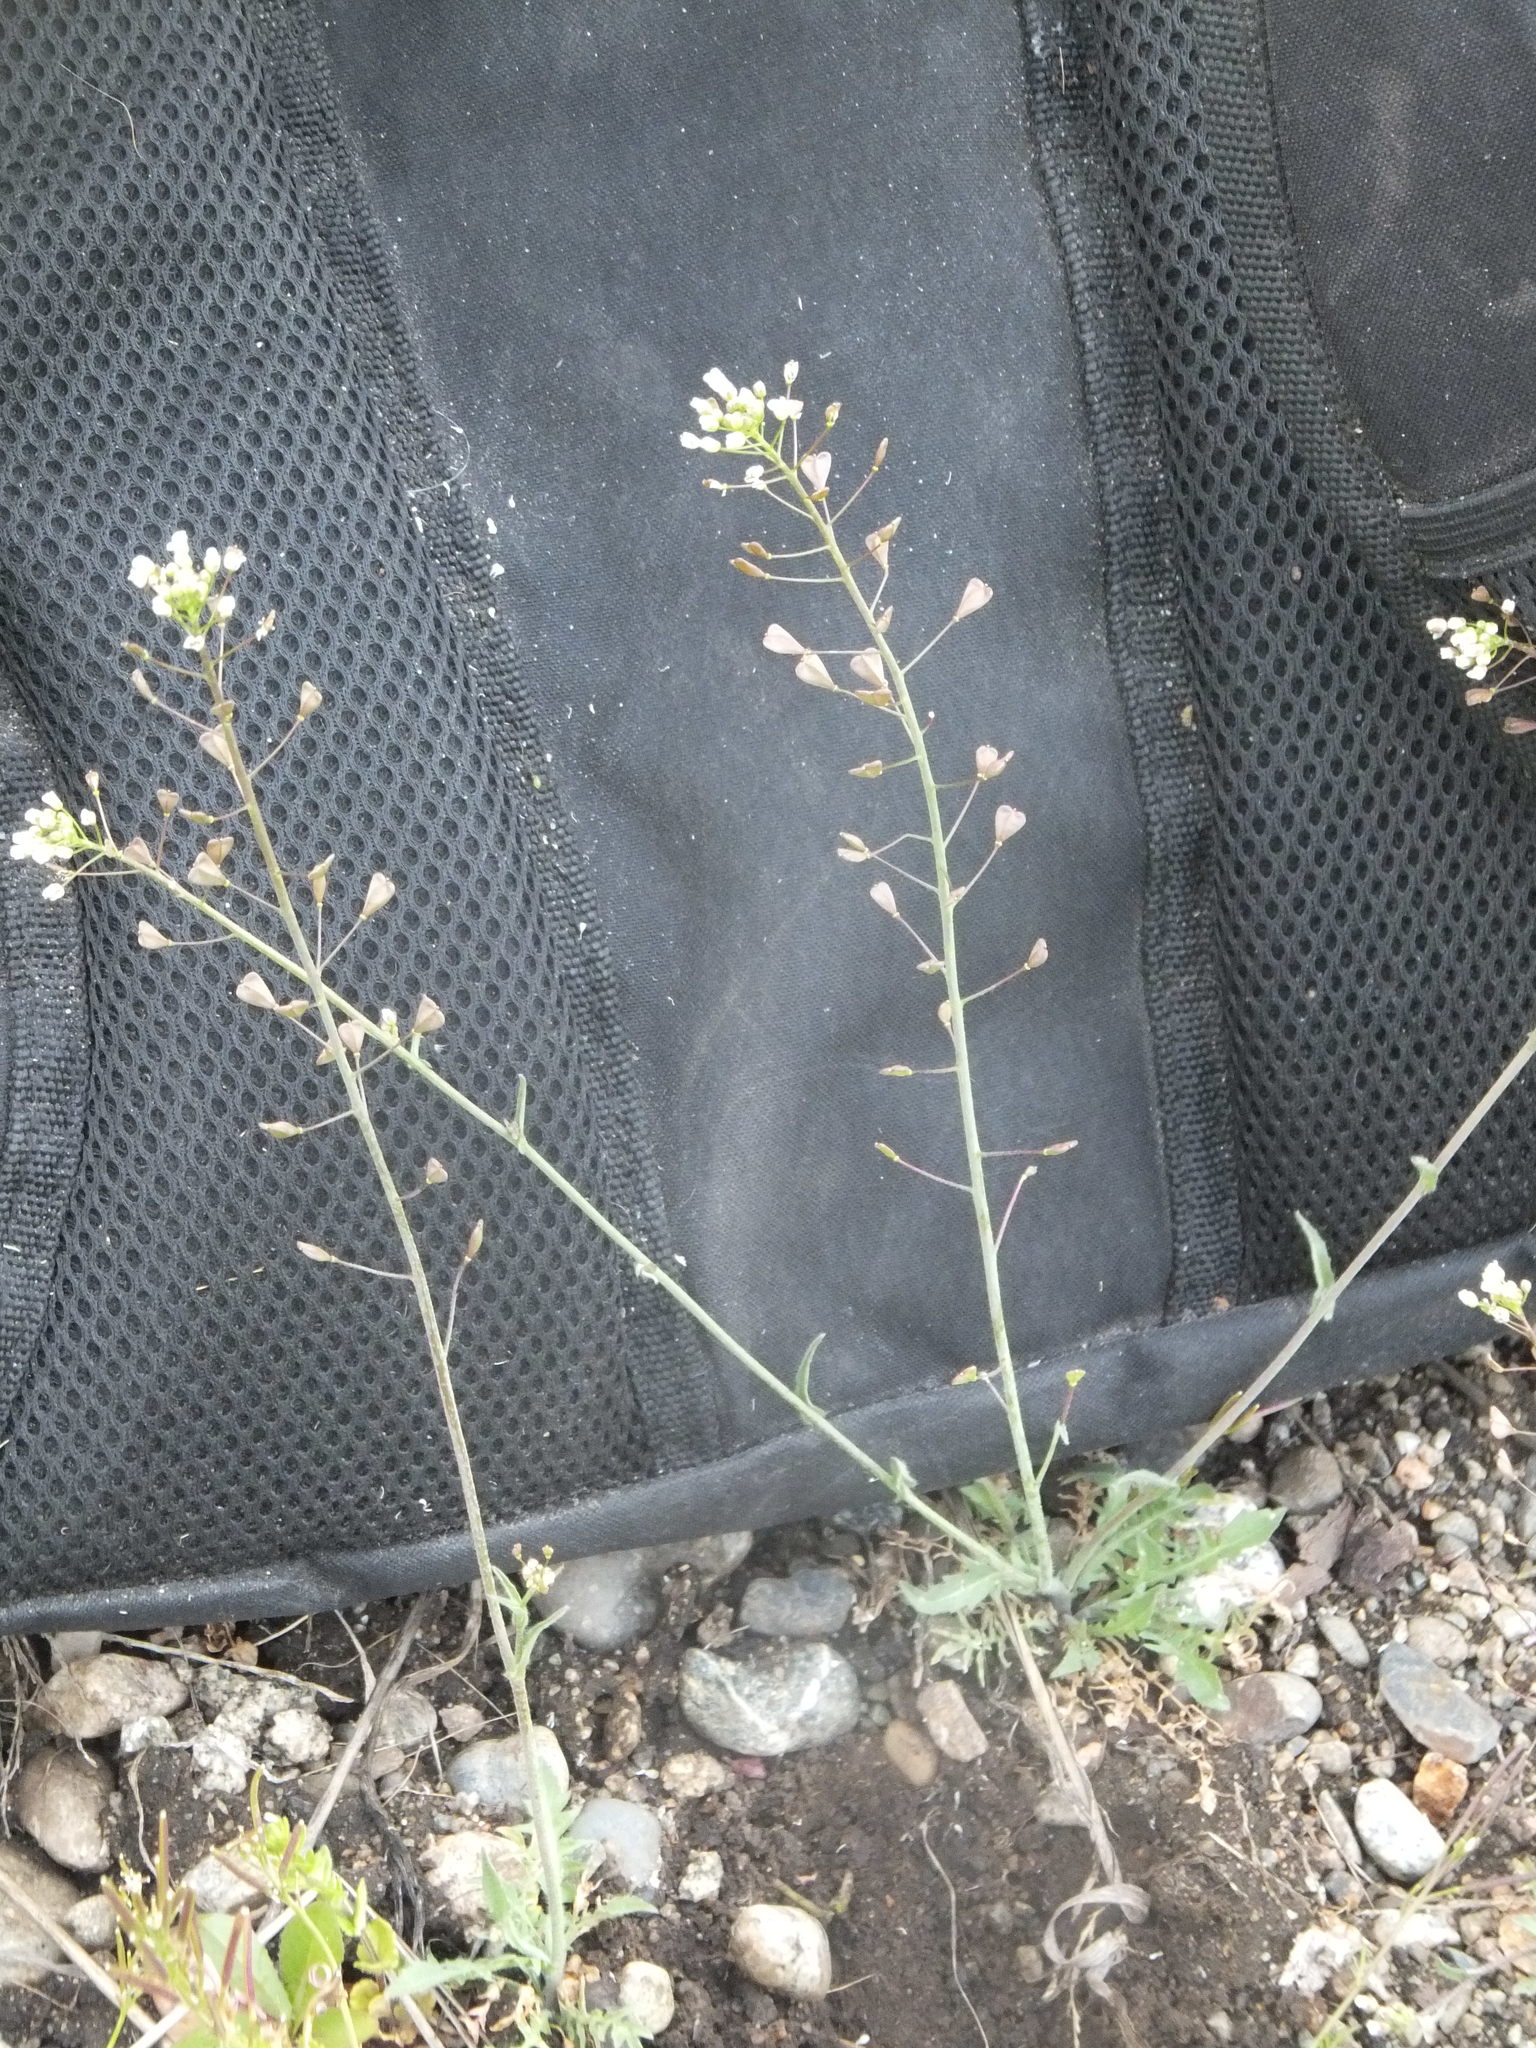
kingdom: Plantae
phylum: Tracheophyta
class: Magnoliopsida
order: Brassicales
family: Brassicaceae
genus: Capsella
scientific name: Capsella bursa-pastoris
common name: Shepherd's purse
